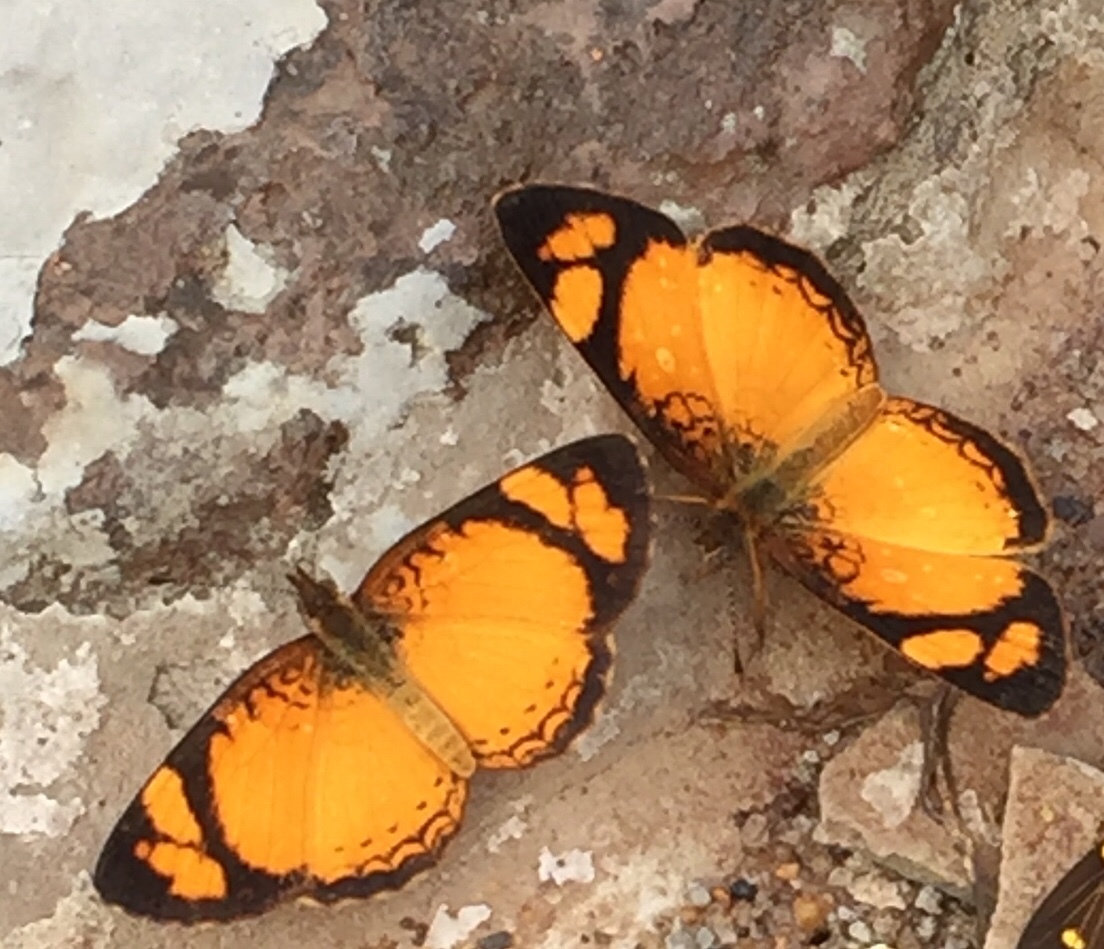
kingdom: Animalia
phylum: Arthropoda
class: Insecta
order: Lepidoptera
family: Nymphalidae
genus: Tegosa
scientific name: Tegosa claudina
